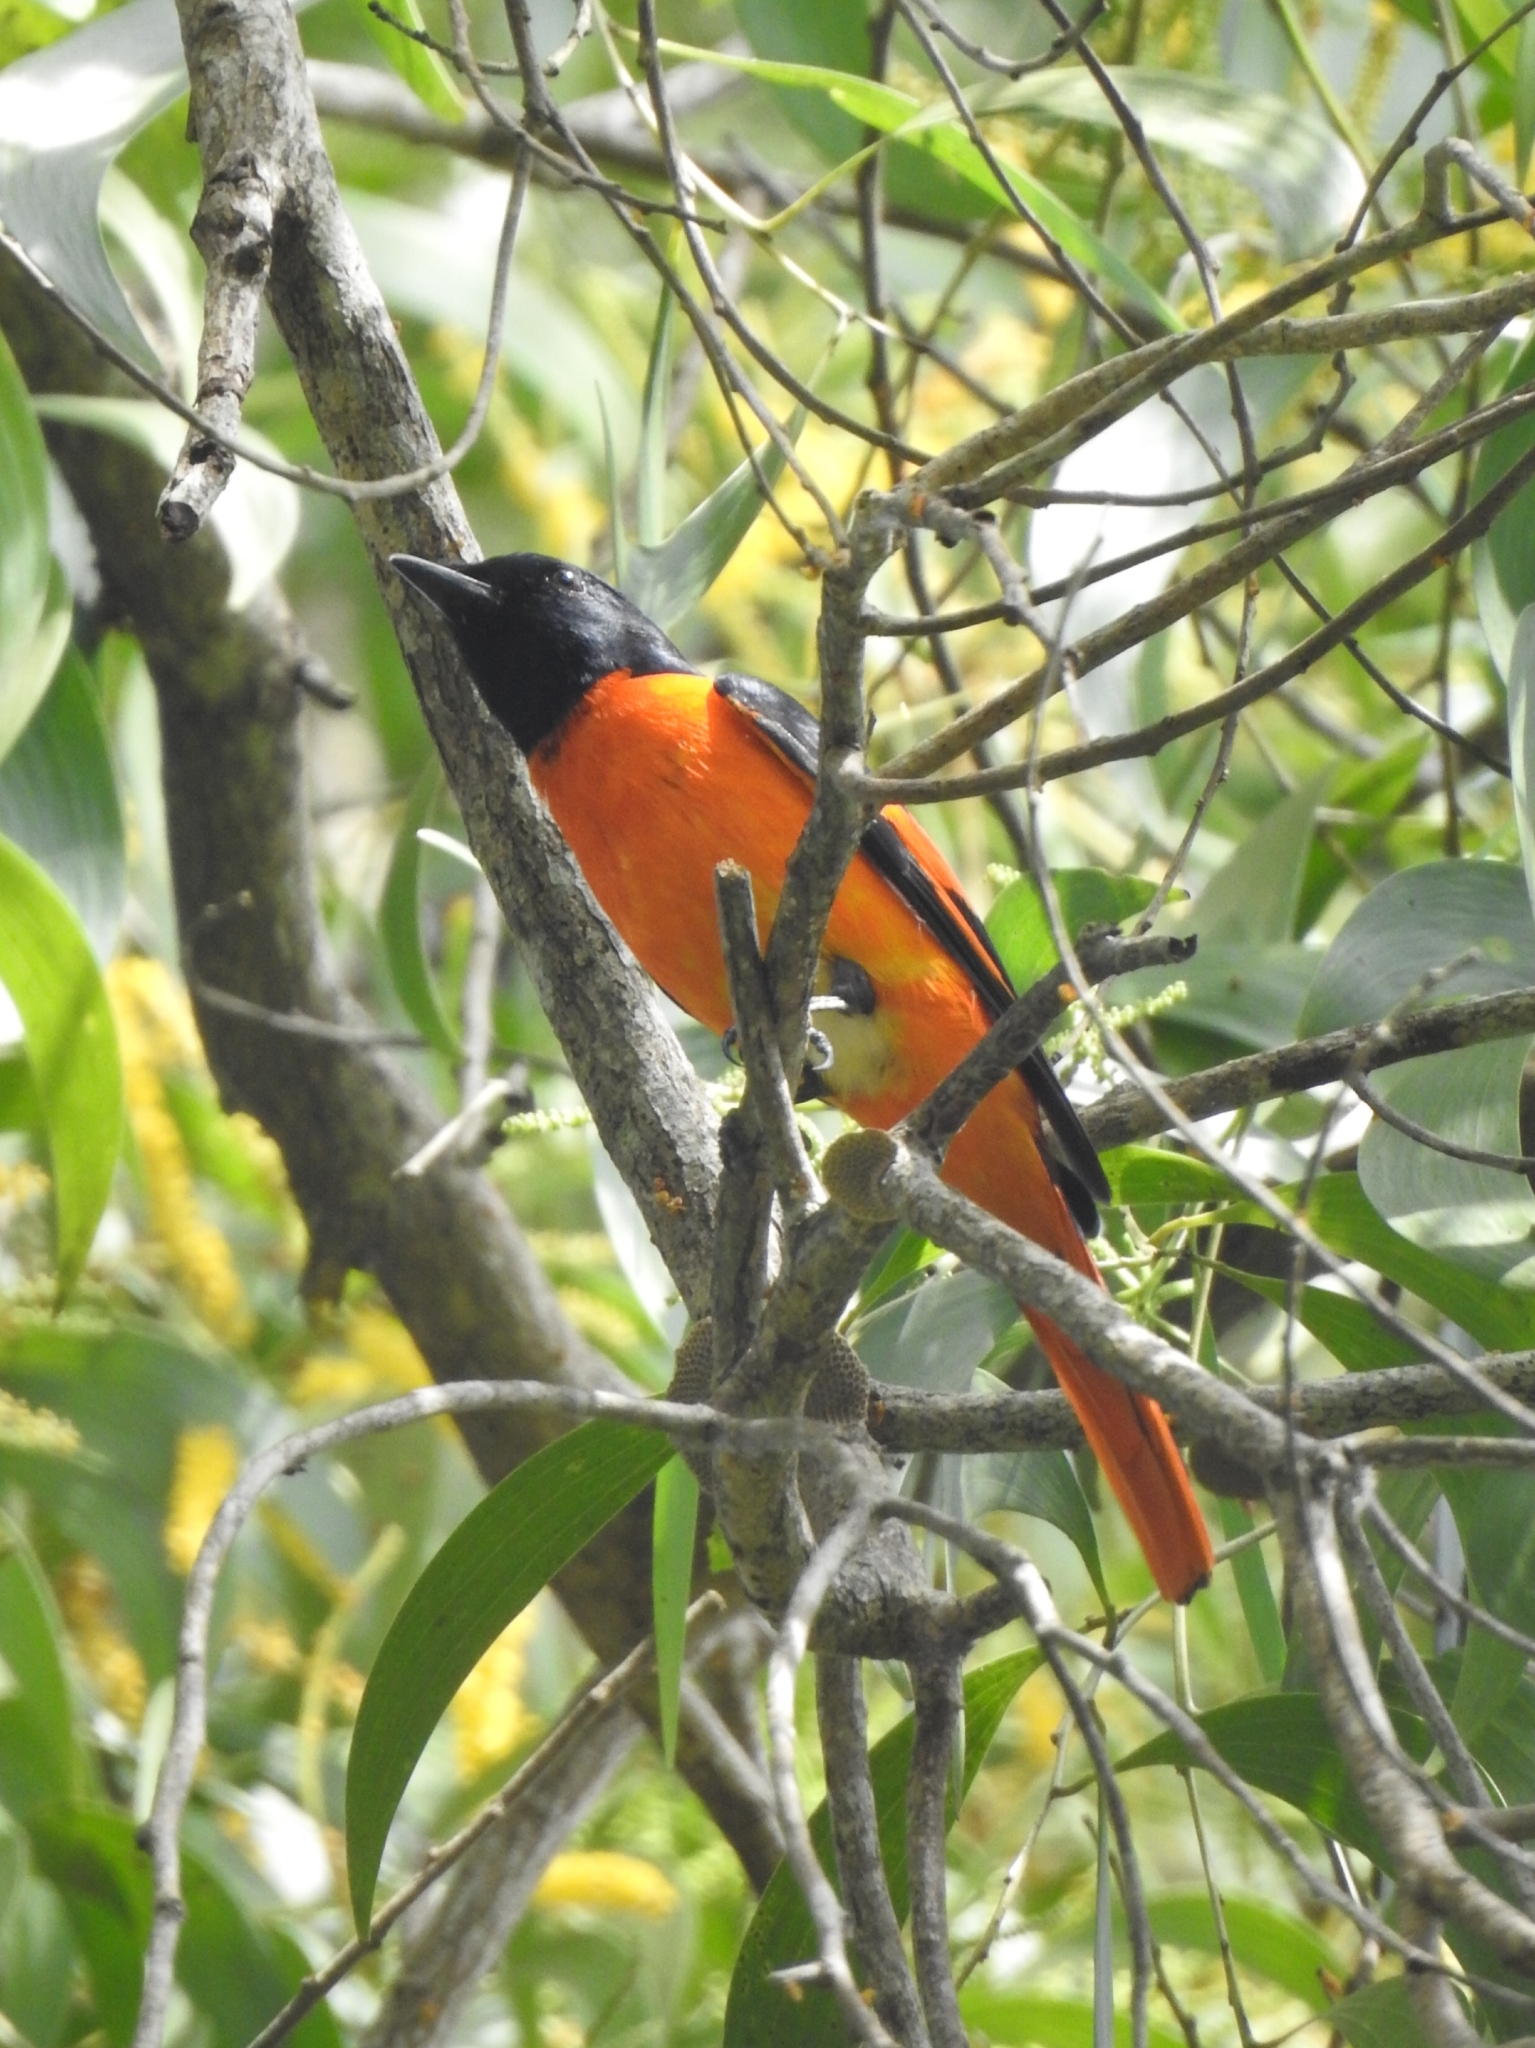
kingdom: Animalia
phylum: Chordata
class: Aves
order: Passeriformes
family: Campephagidae
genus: Pericrocotus
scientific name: Pericrocotus flammeus
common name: Orange minivet
